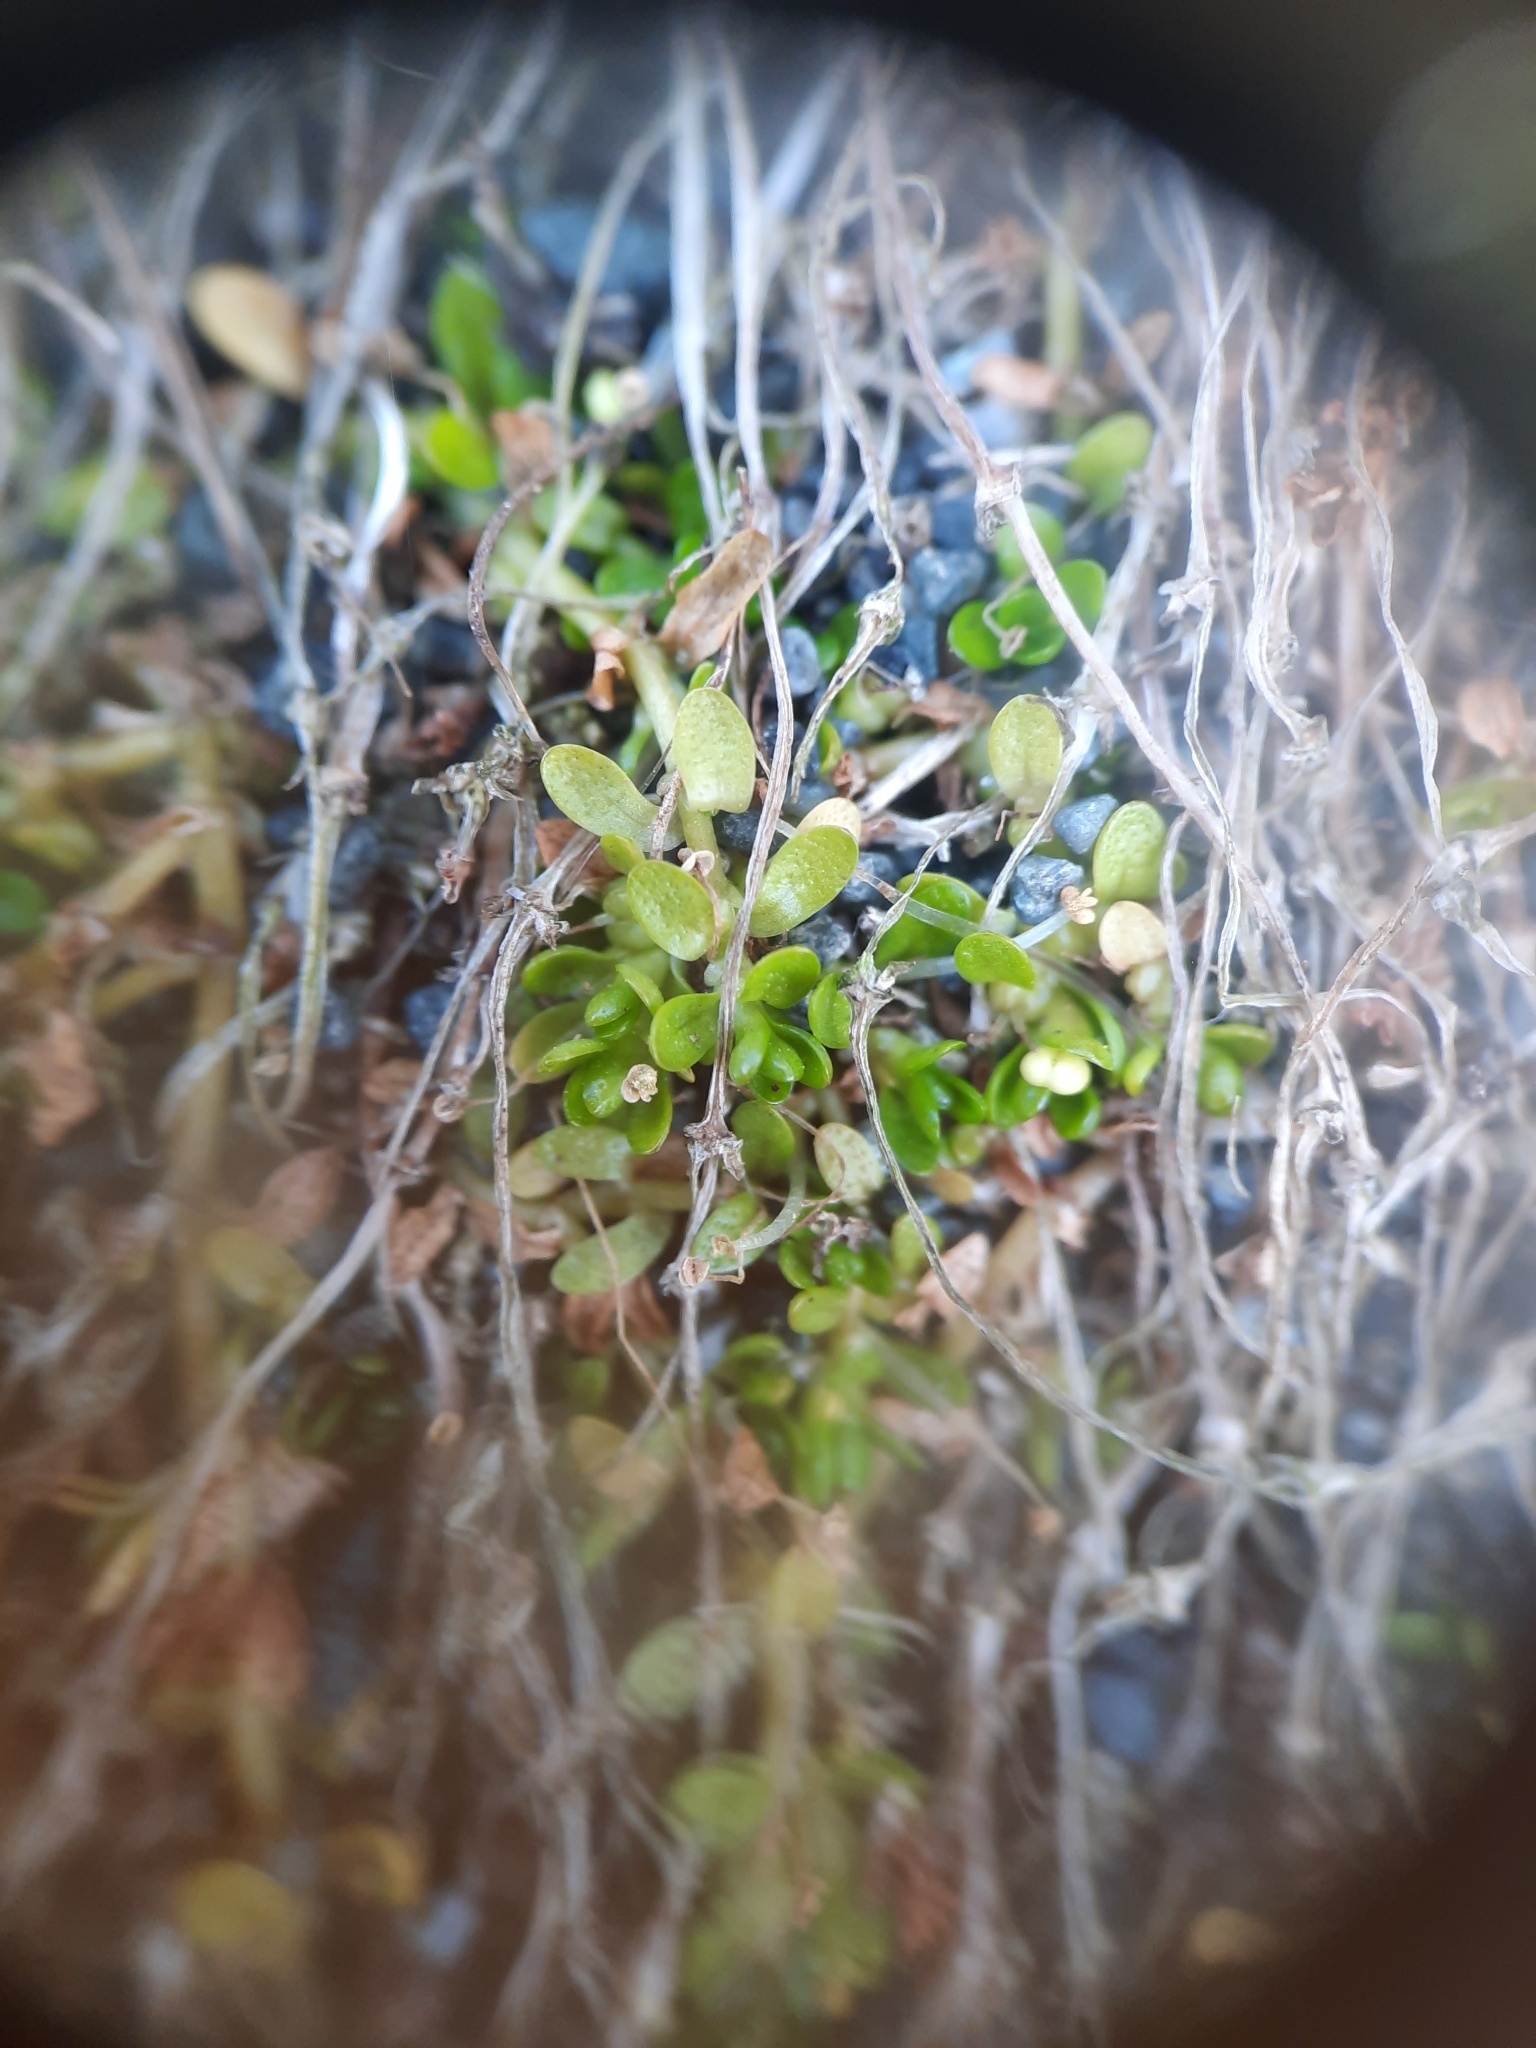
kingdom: Plantae
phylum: Tracheophyta
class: Magnoliopsida
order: Asterales
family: Goodeniaceae
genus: Goodenia
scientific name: Goodenia radicans
